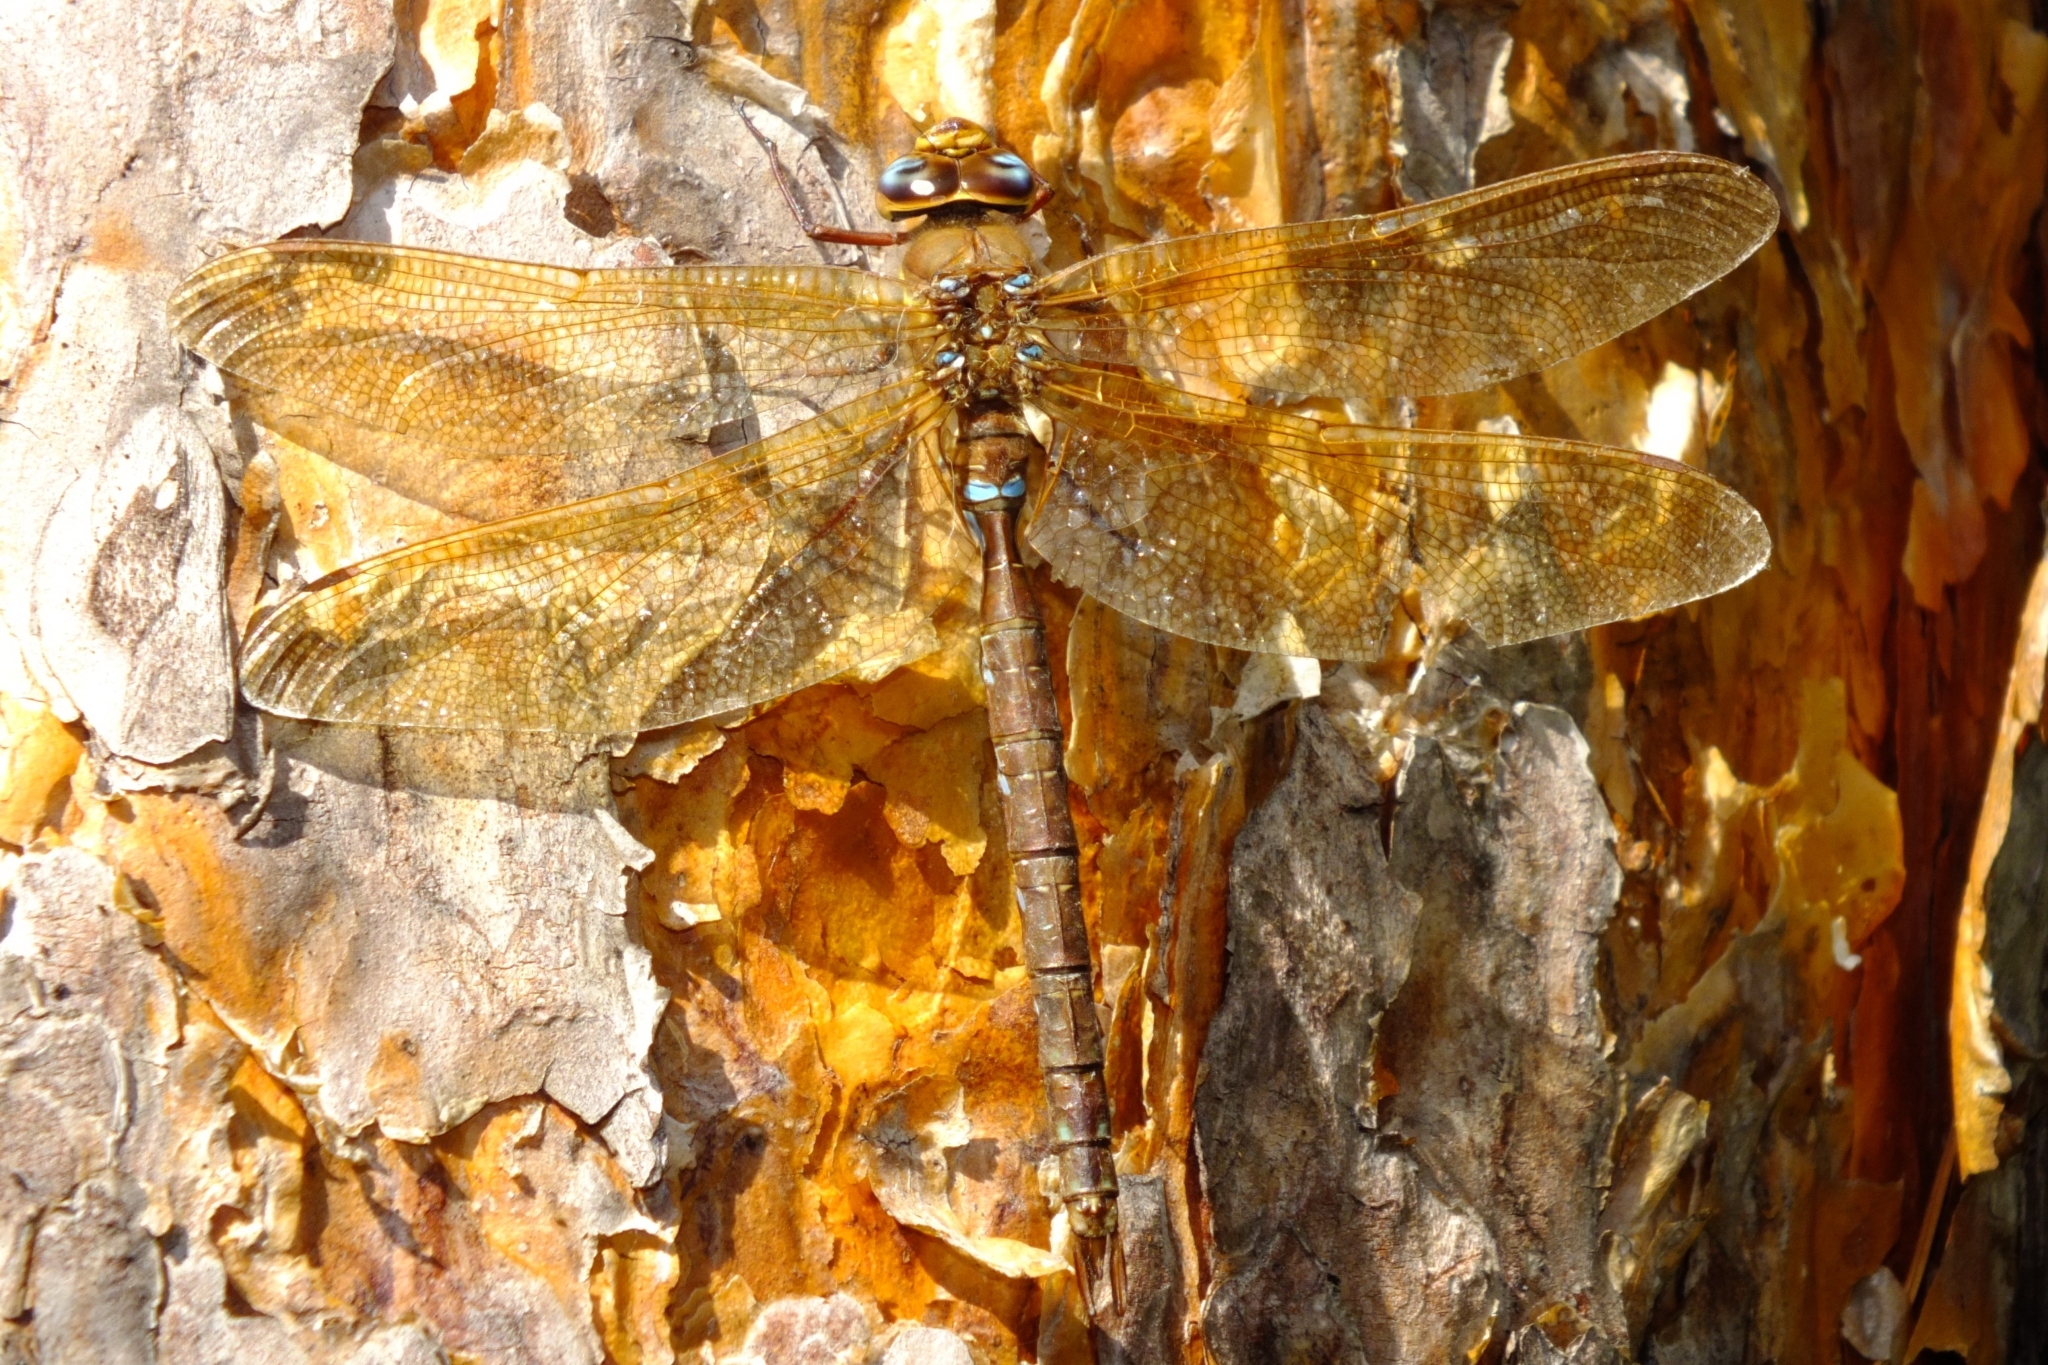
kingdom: Animalia
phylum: Arthropoda
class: Insecta
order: Odonata
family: Aeshnidae
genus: Aeshna
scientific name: Aeshna grandis
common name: Brown hawker
